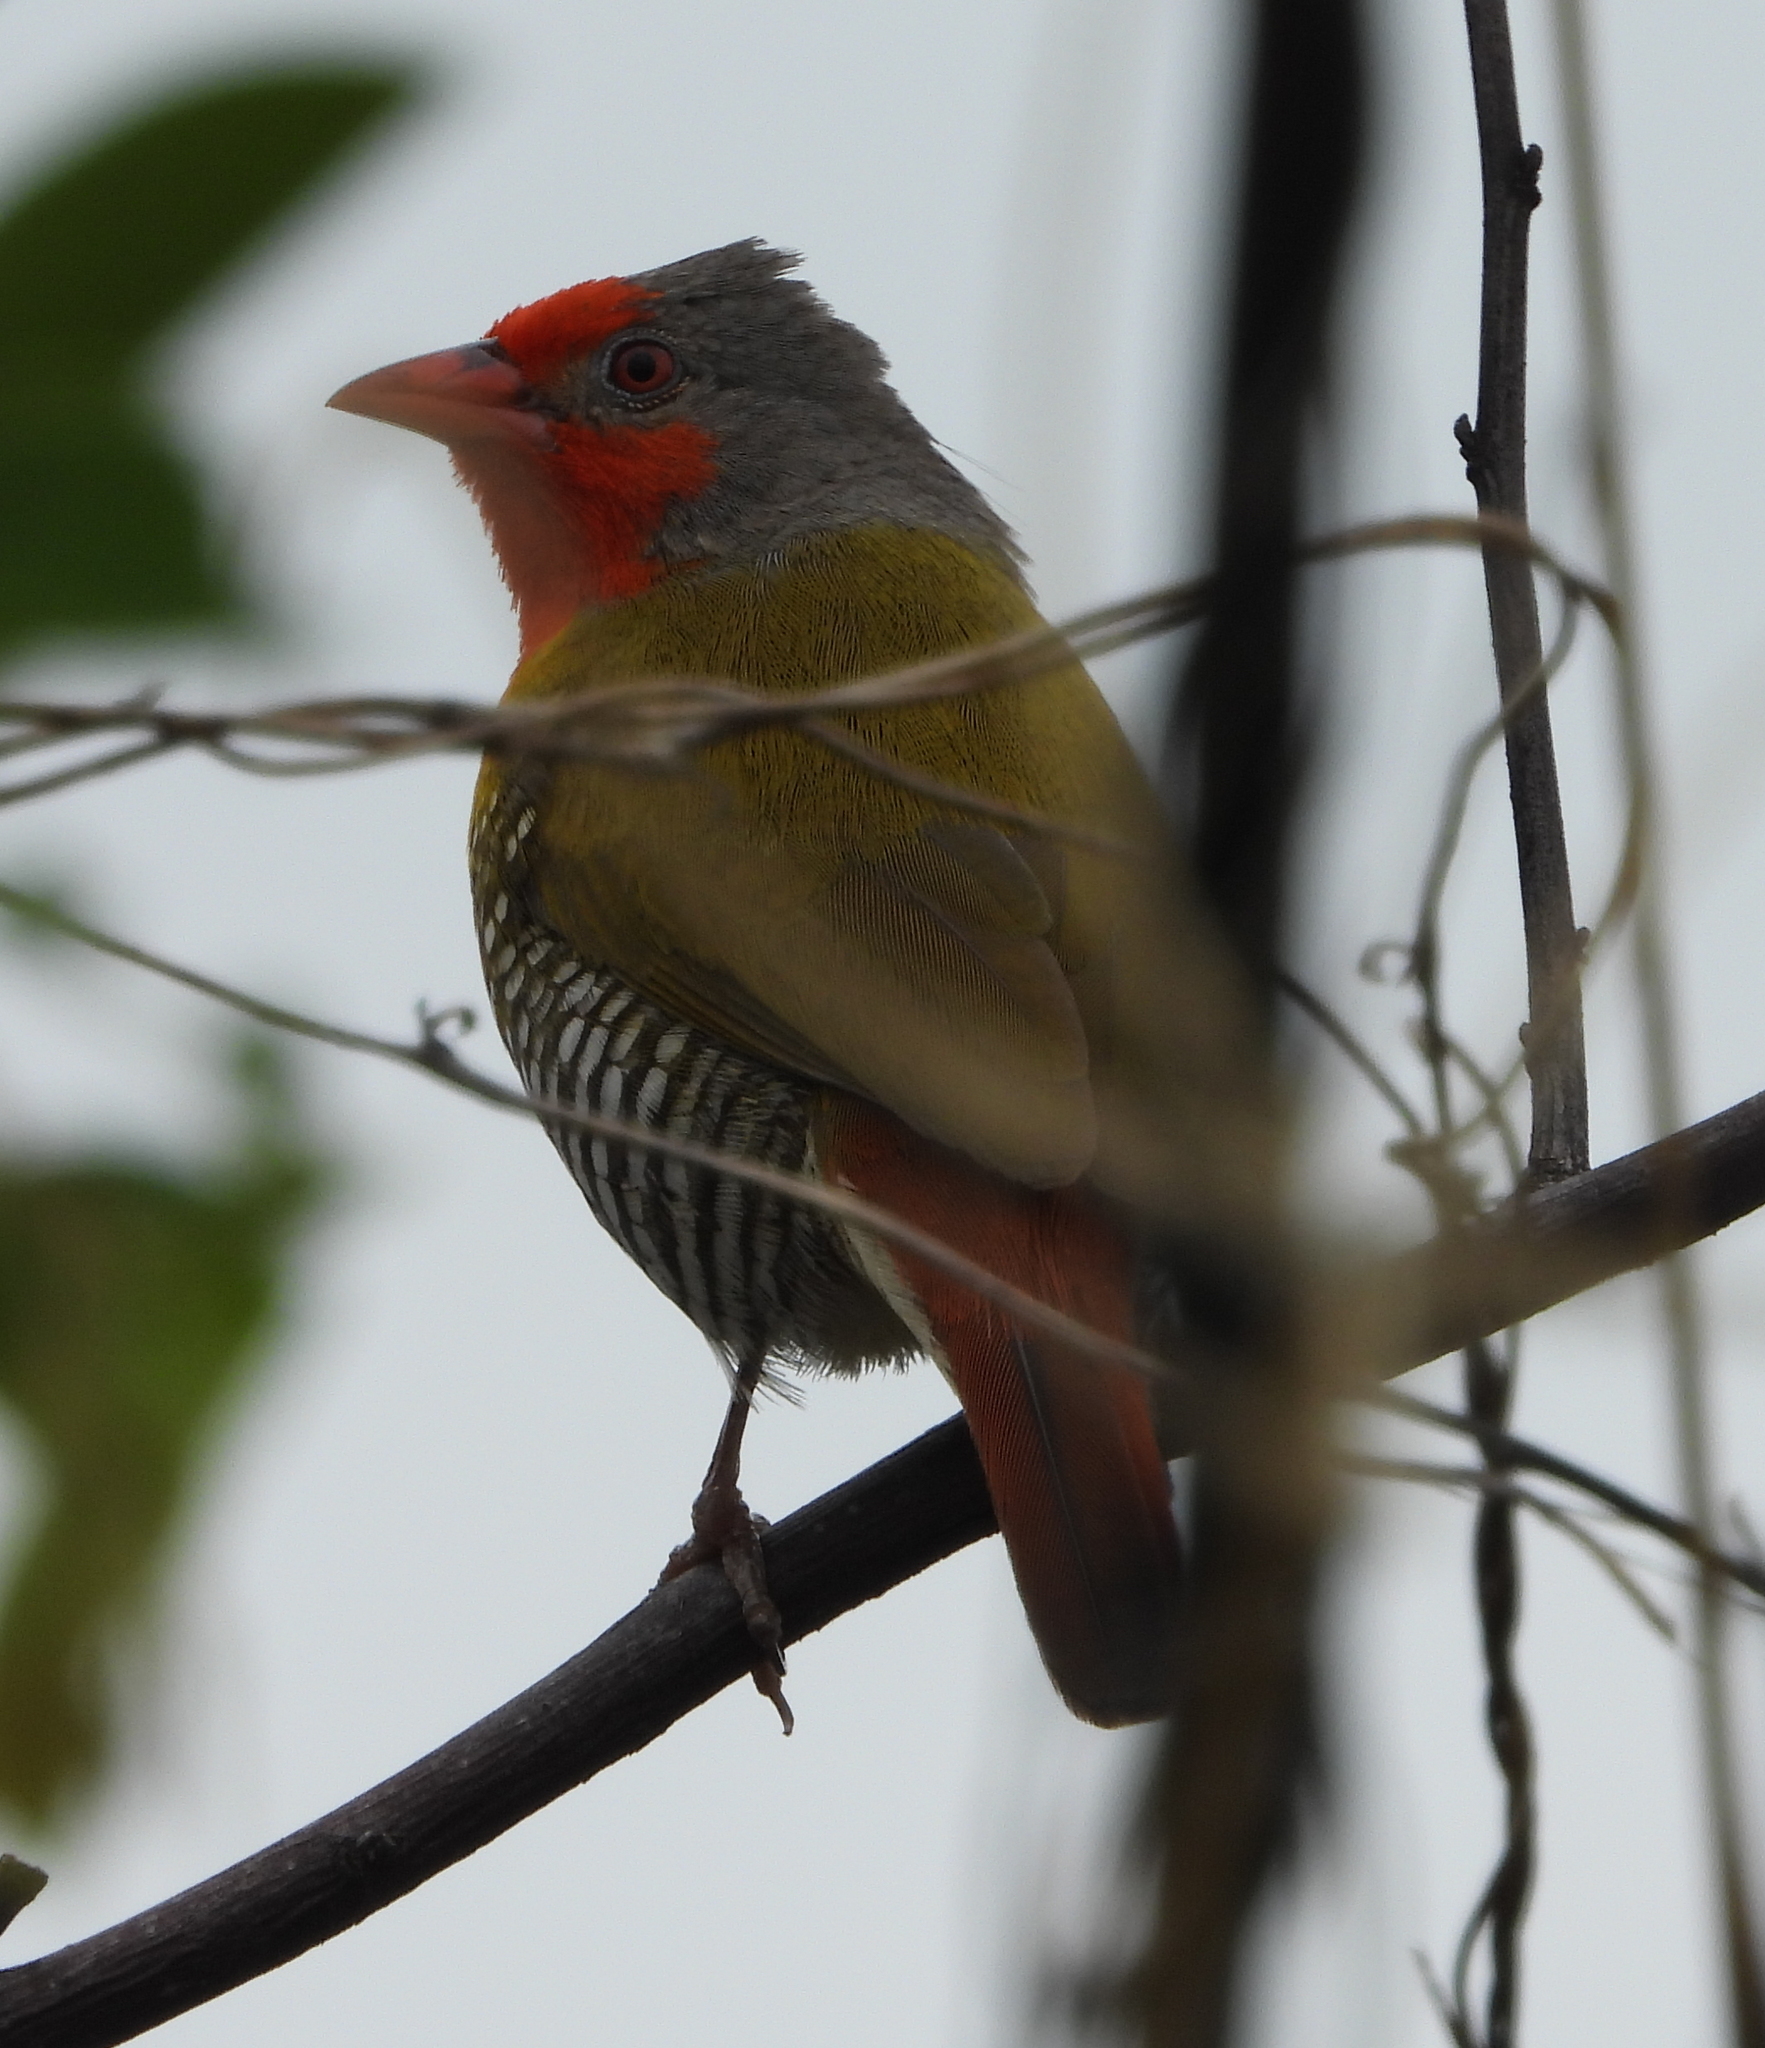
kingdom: Animalia
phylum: Chordata
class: Aves
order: Passeriformes
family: Estrildidae
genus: Pytilia
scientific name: Pytilia melba
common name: Green-winged pytilia
